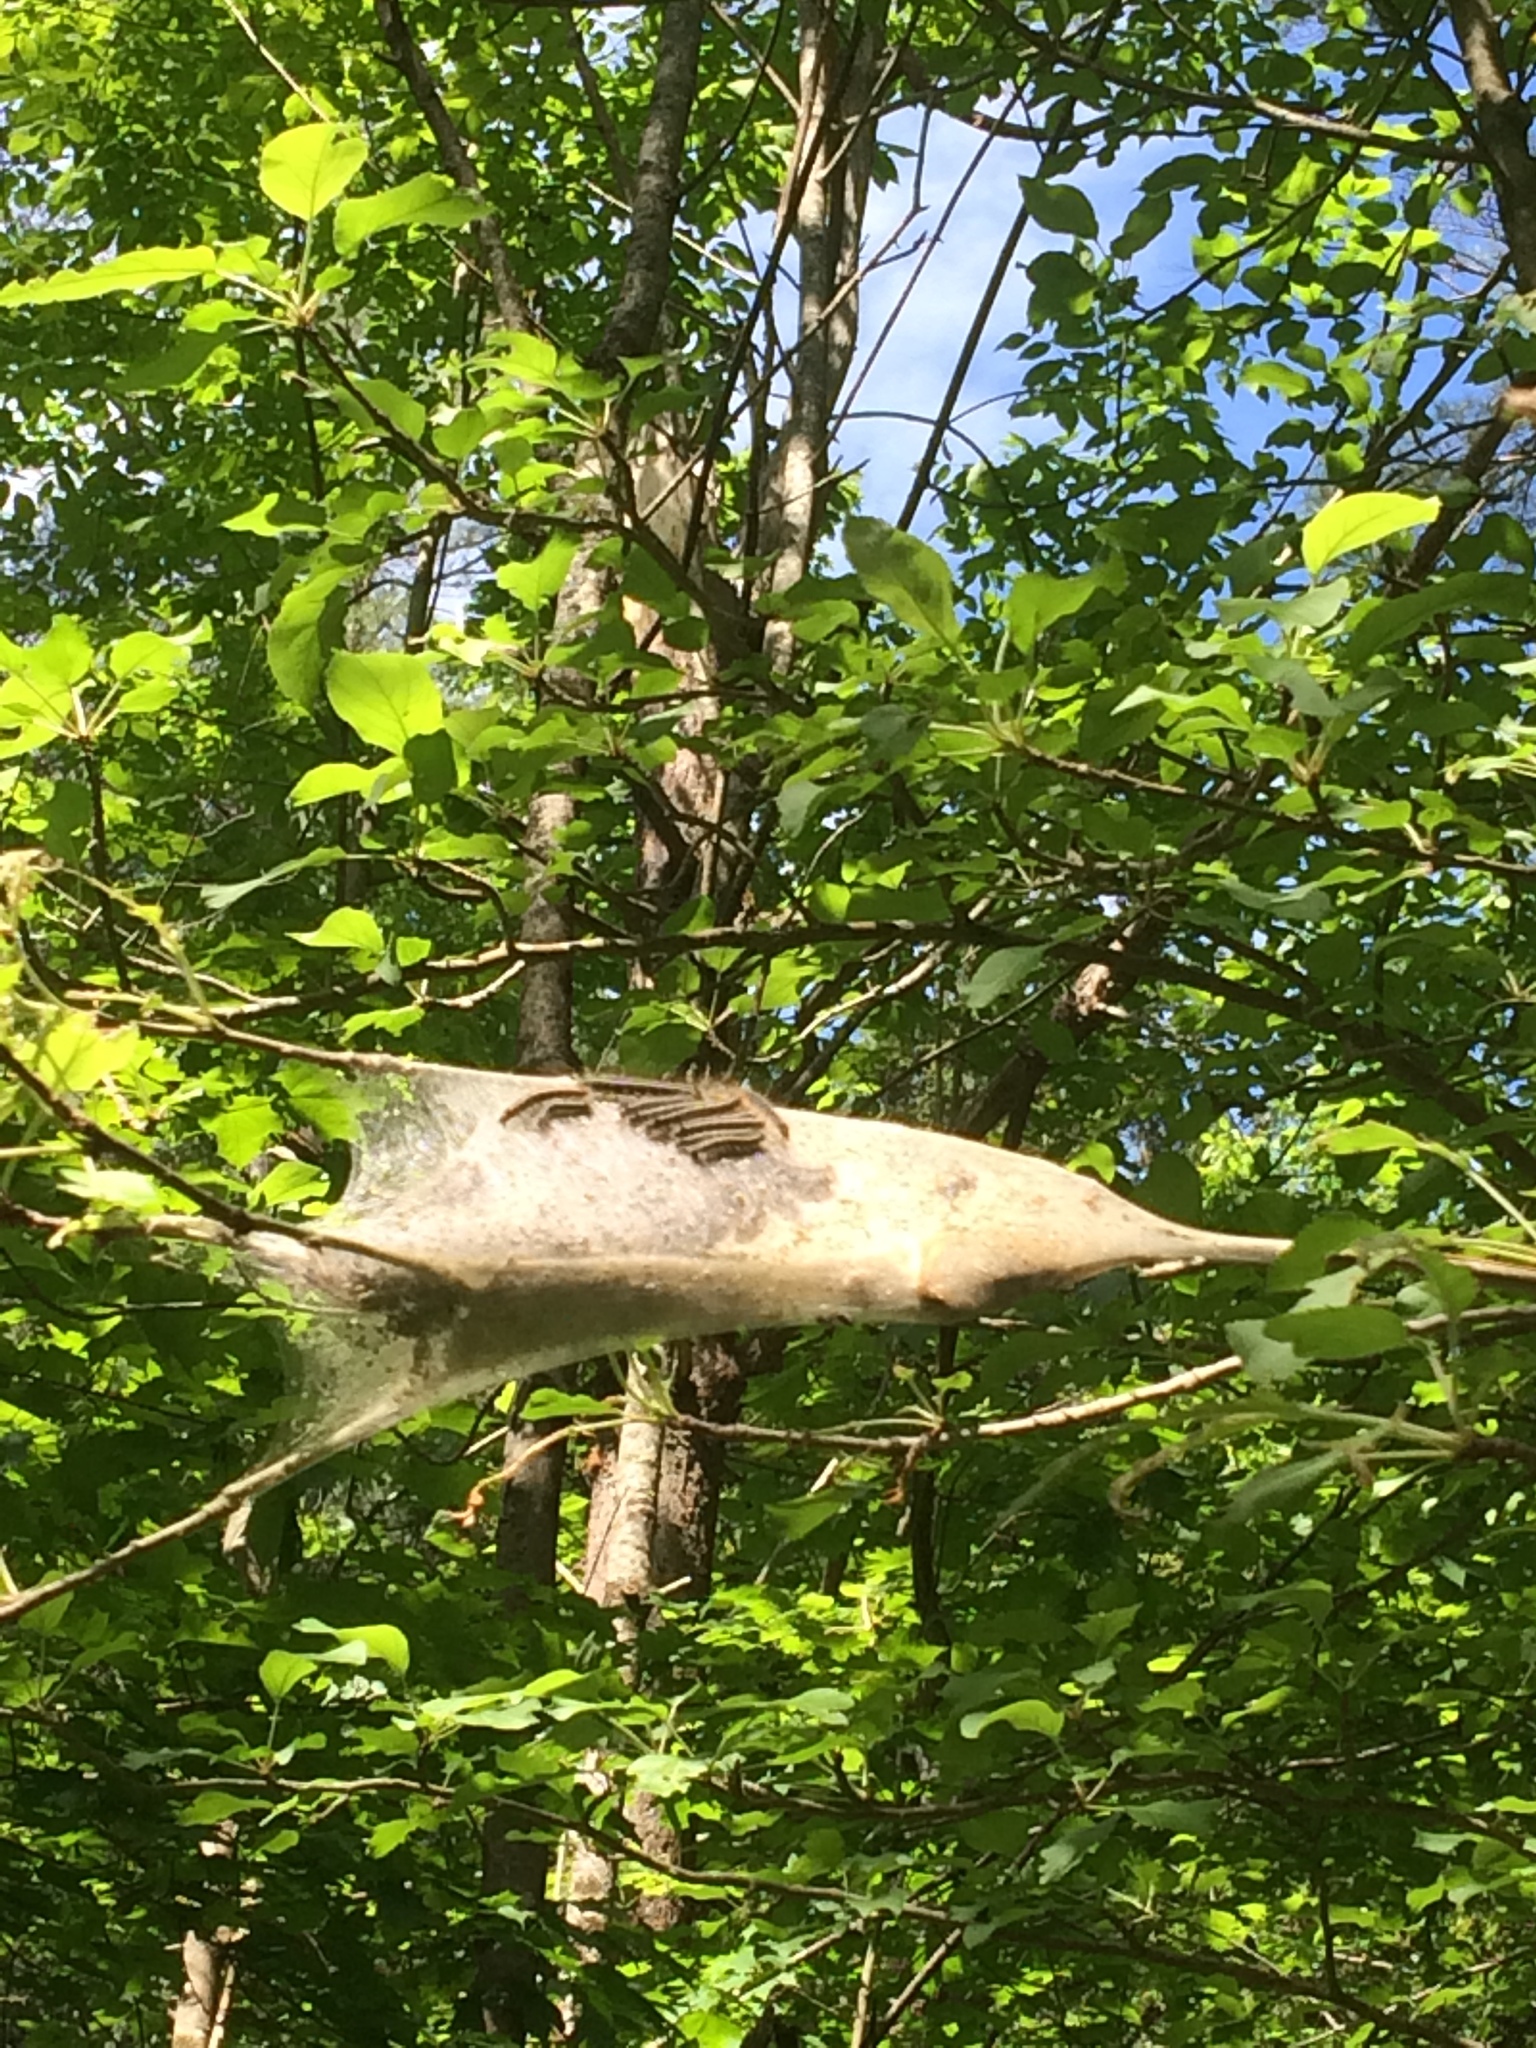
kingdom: Animalia
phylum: Arthropoda
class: Insecta
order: Lepidoptera
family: Lasiocampidae
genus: Malacosoma
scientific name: Malacosoma americana
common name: Eastern tent caterpillar moth
